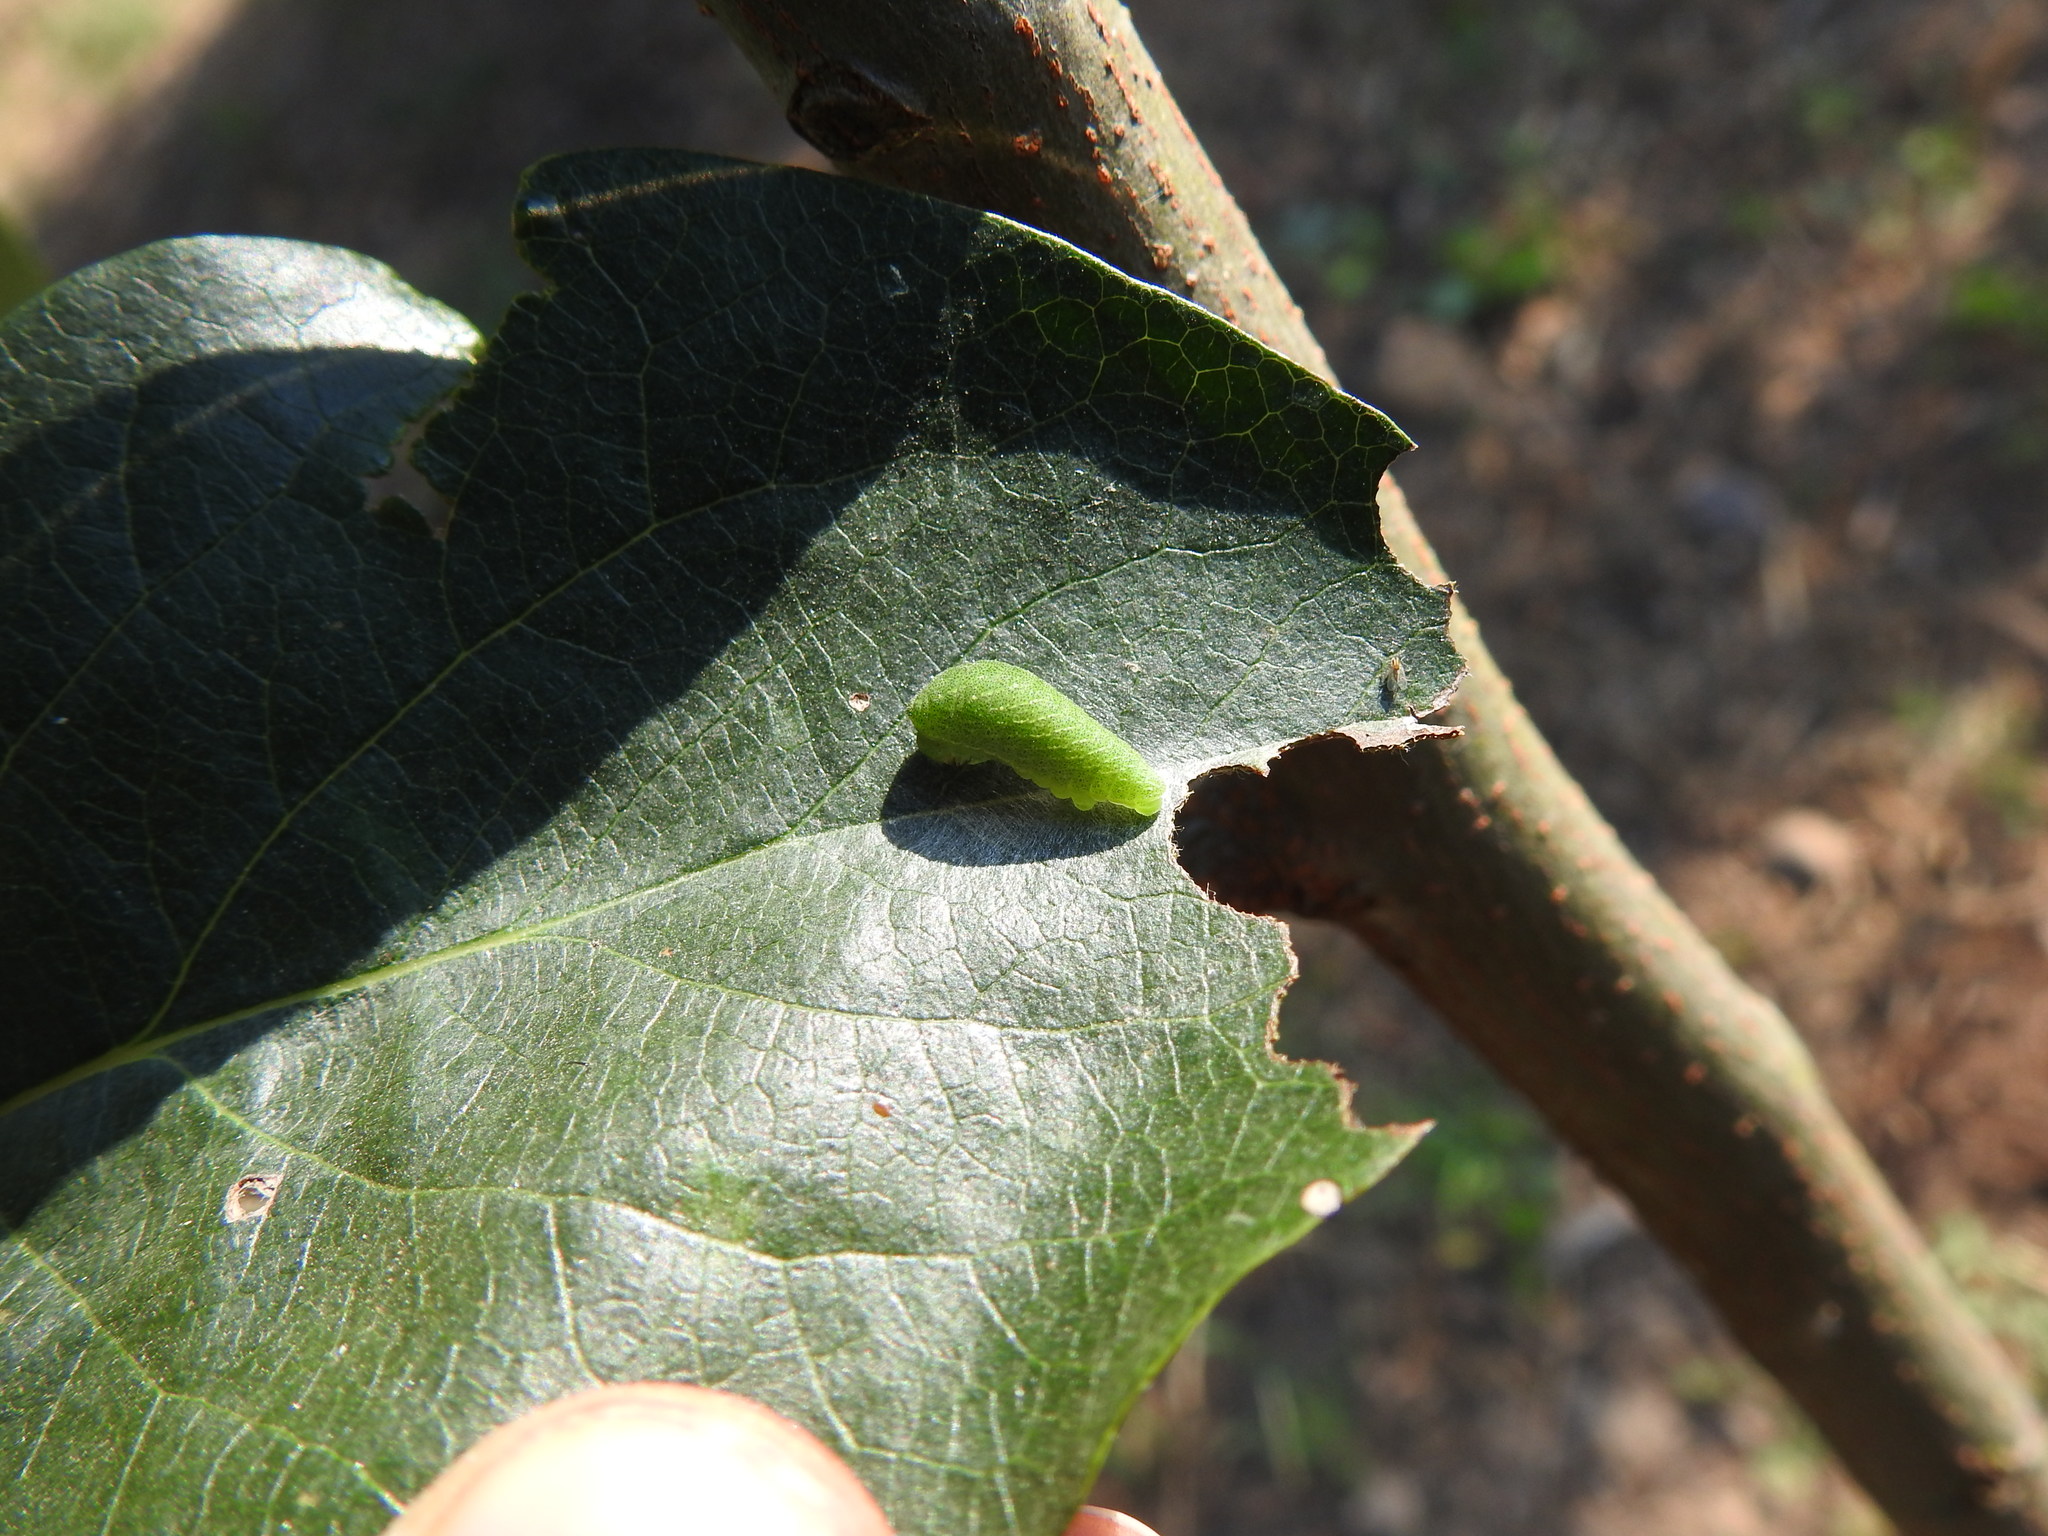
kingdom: Animalia
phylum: Arthropoda
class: Insecta
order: Lepidoptera
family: Papilionidae
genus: Iphiclides
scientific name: Iphiclides feisthamelii
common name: Iberian scarce swallowtail
